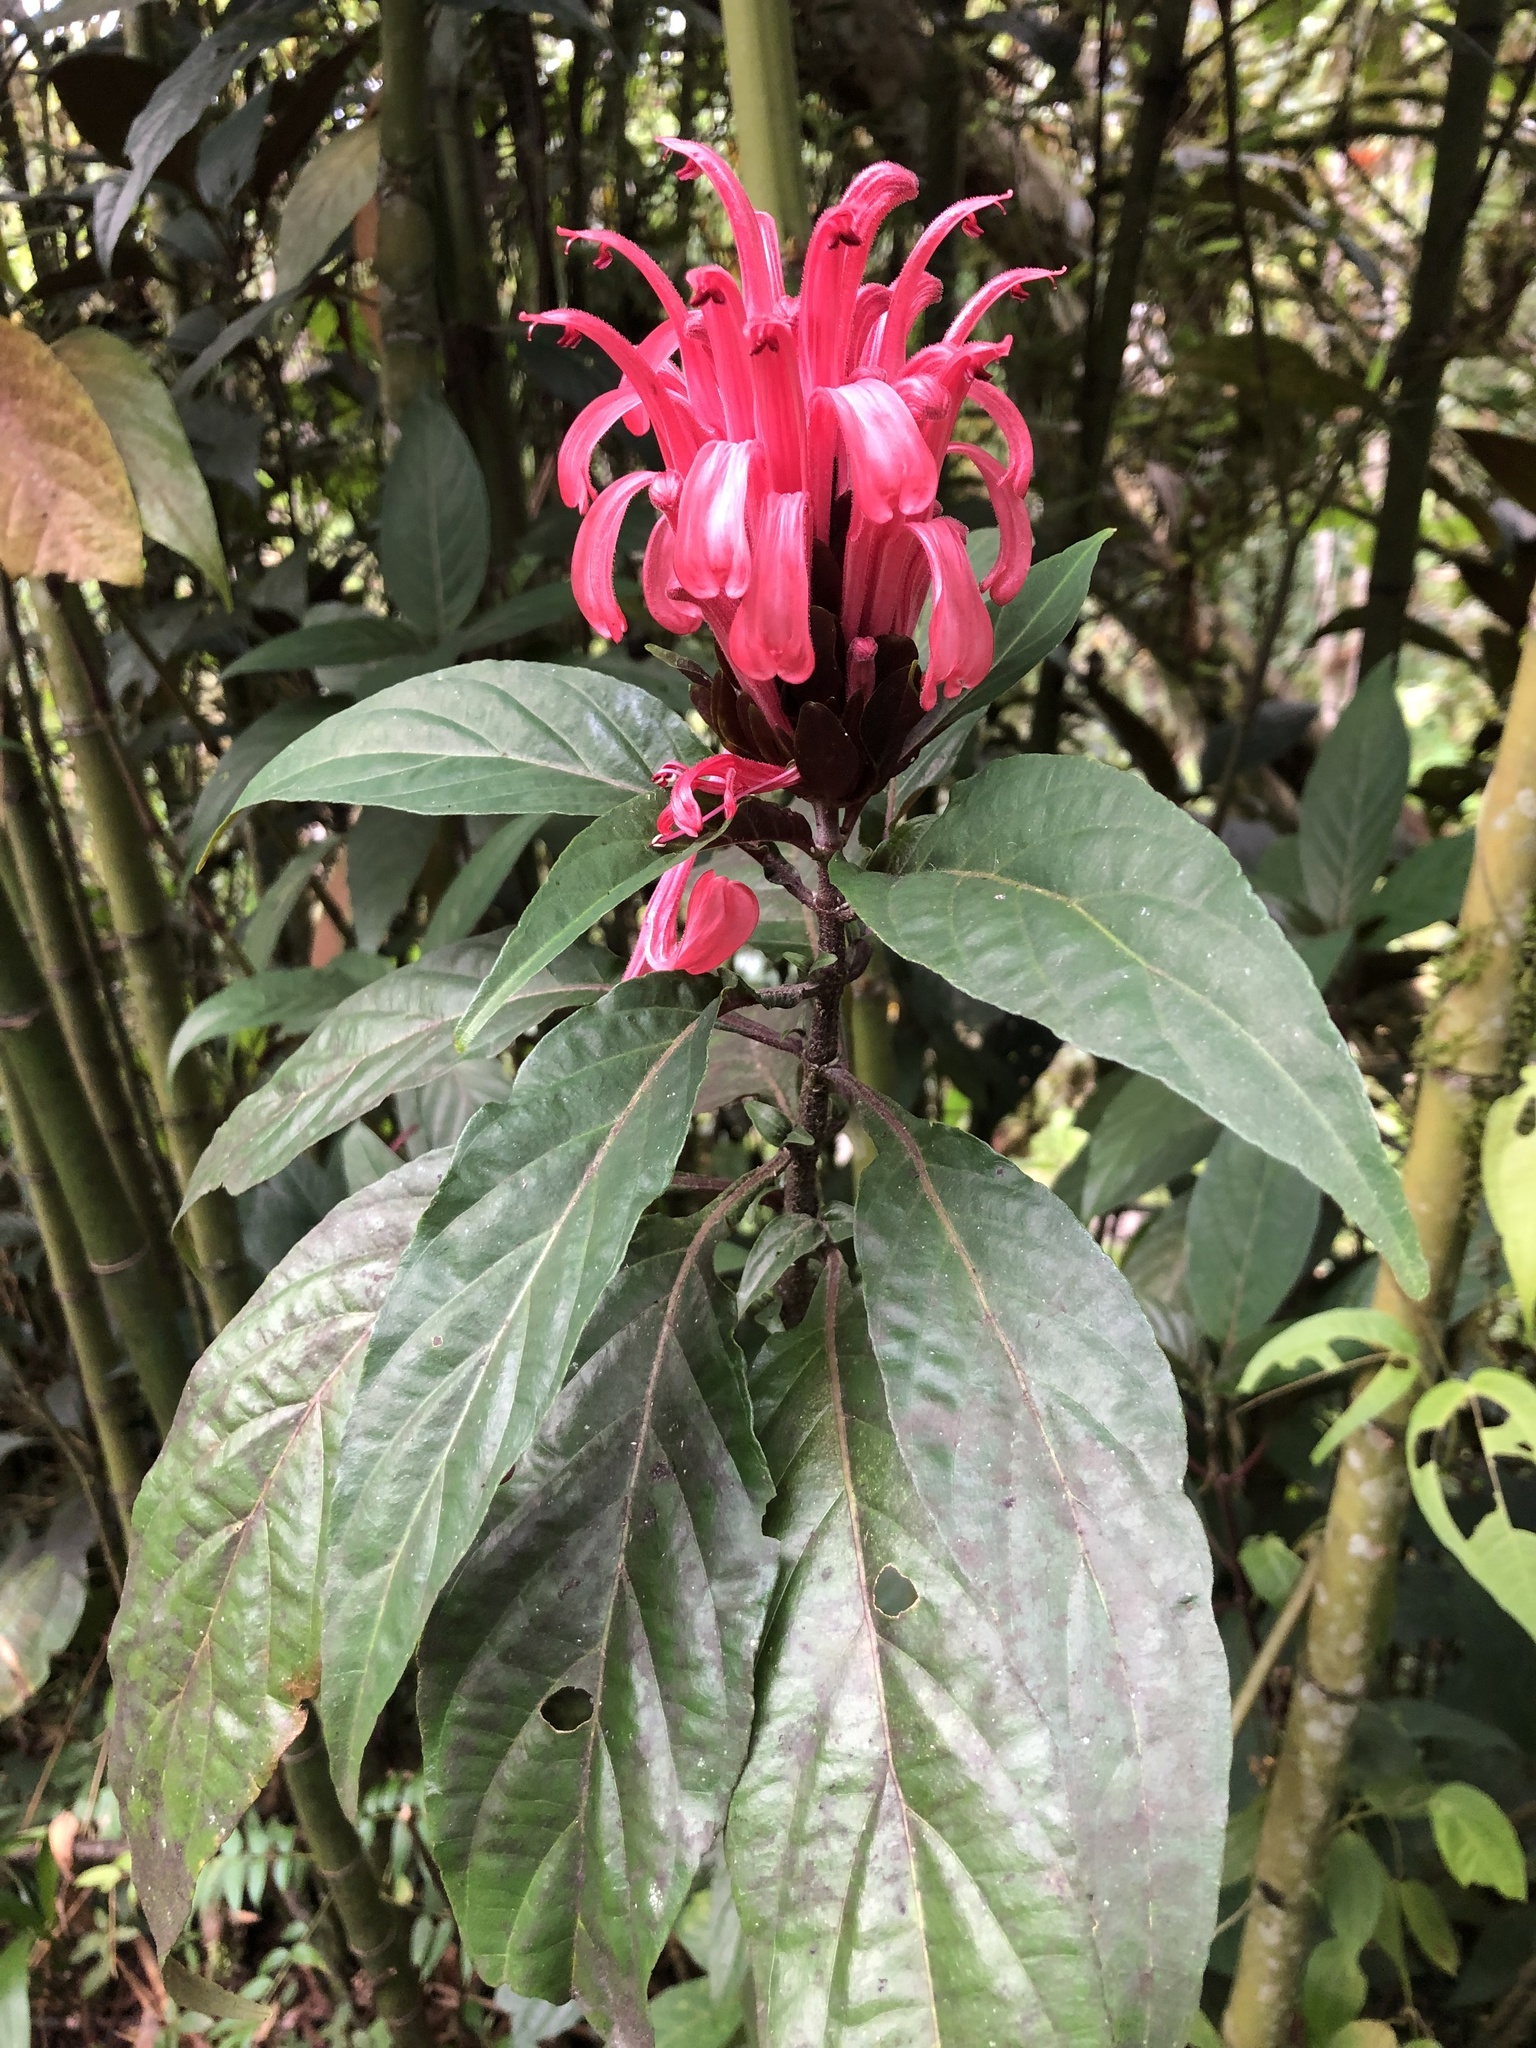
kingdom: Plantae
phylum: Tracheophyta
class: Magnoliopsida
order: Lamiales
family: Acanthaceae
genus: Justicia
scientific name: Justicia carnea
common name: Brazilian-plume
